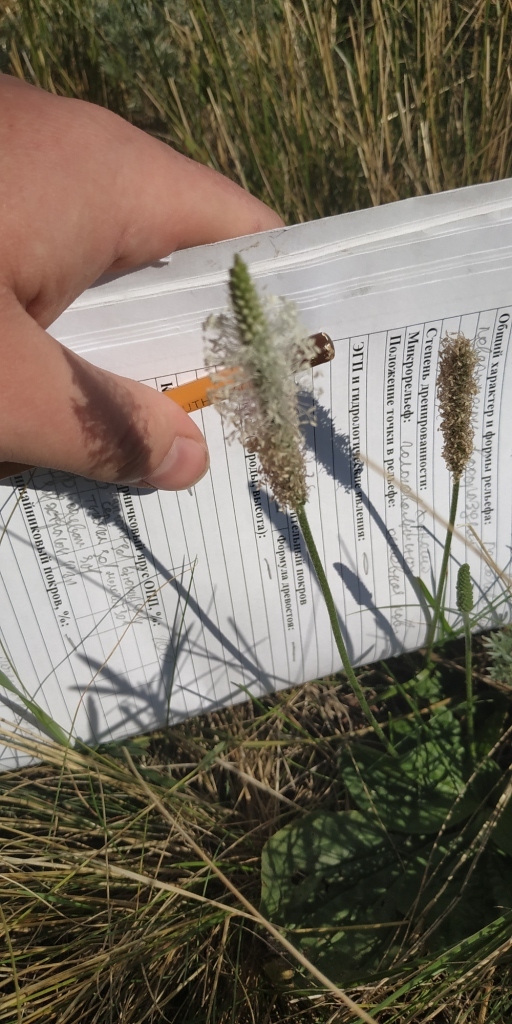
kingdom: Plantae
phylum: Tracheophyta
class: Magnoliopsida
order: Lamiales
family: Plantaginaceae
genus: Plantago
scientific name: Plantago media
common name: Hoary plantain
